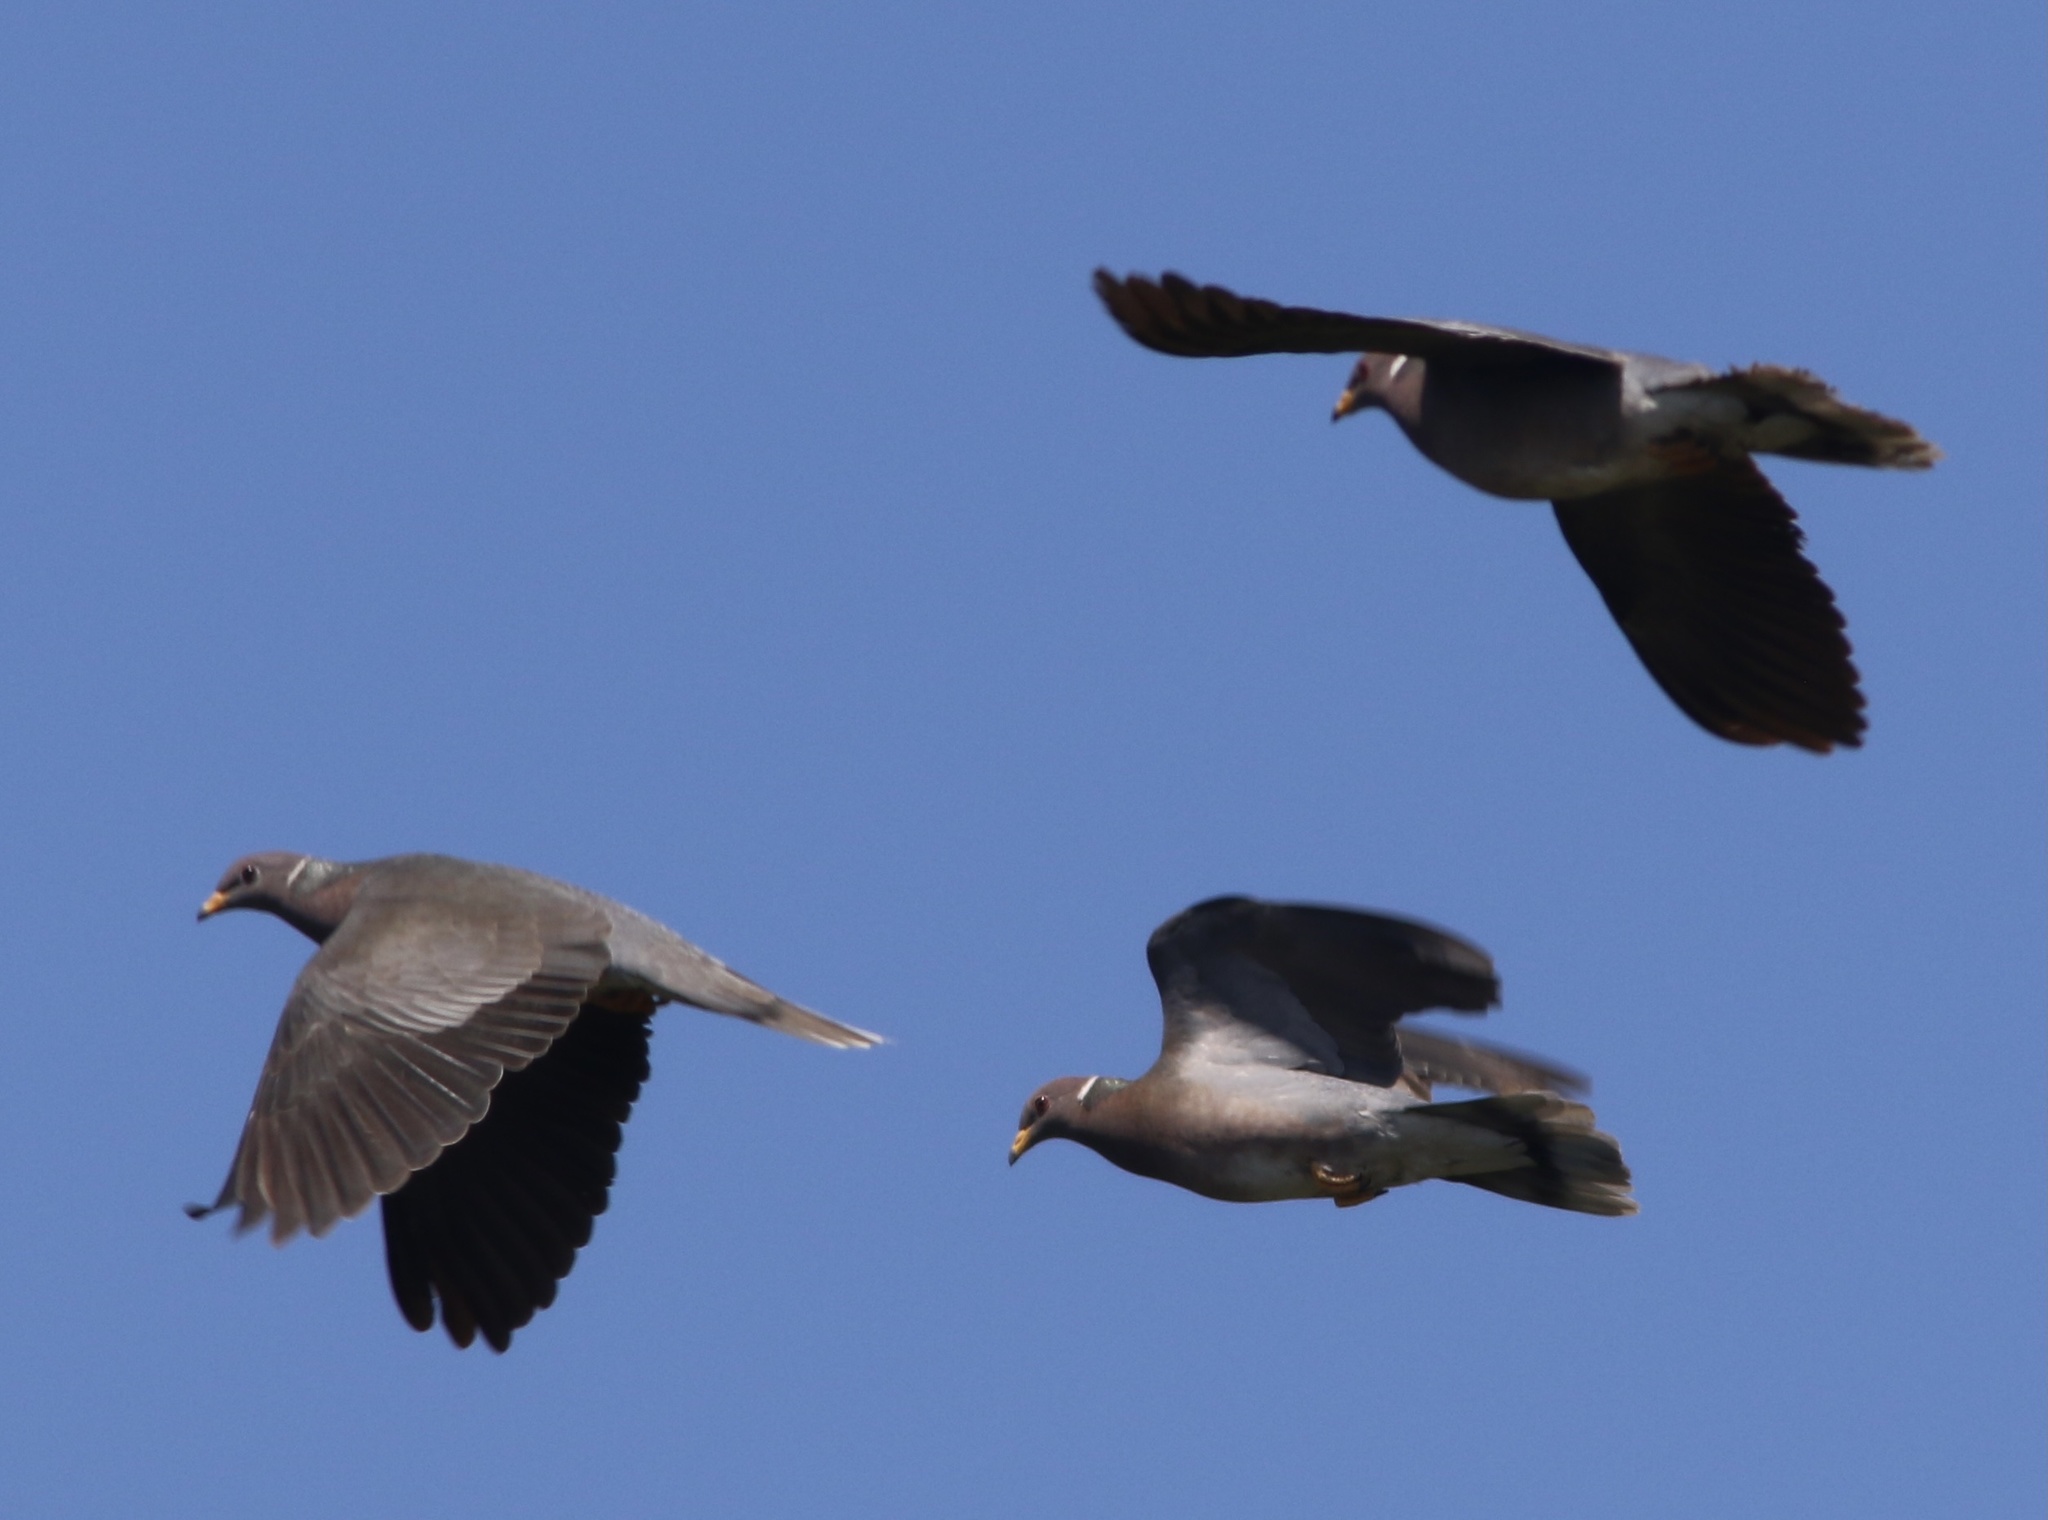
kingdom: Animalia
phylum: Chordata
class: Aves
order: Columbiformes
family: Columbidae
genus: Patagioenas
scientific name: Patagioenas fasciata
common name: Band-tailed pigeon
